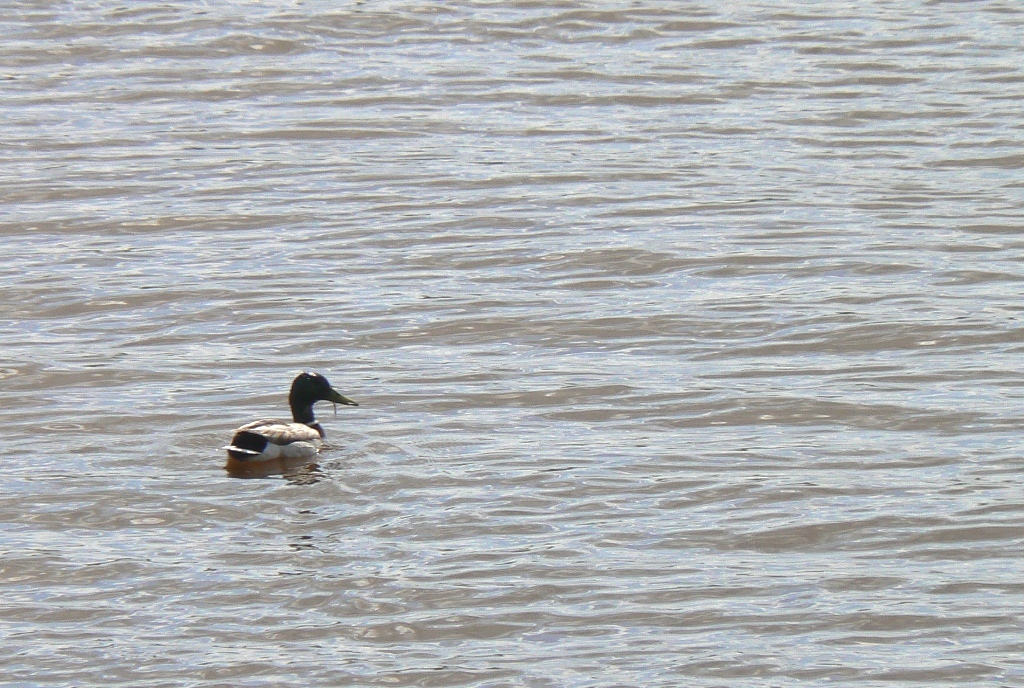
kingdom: Animalia
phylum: Chordata
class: Aves
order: Anseriformes
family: Anatidae
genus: Anas
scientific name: Anas platyrhynchos
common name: Mallard
